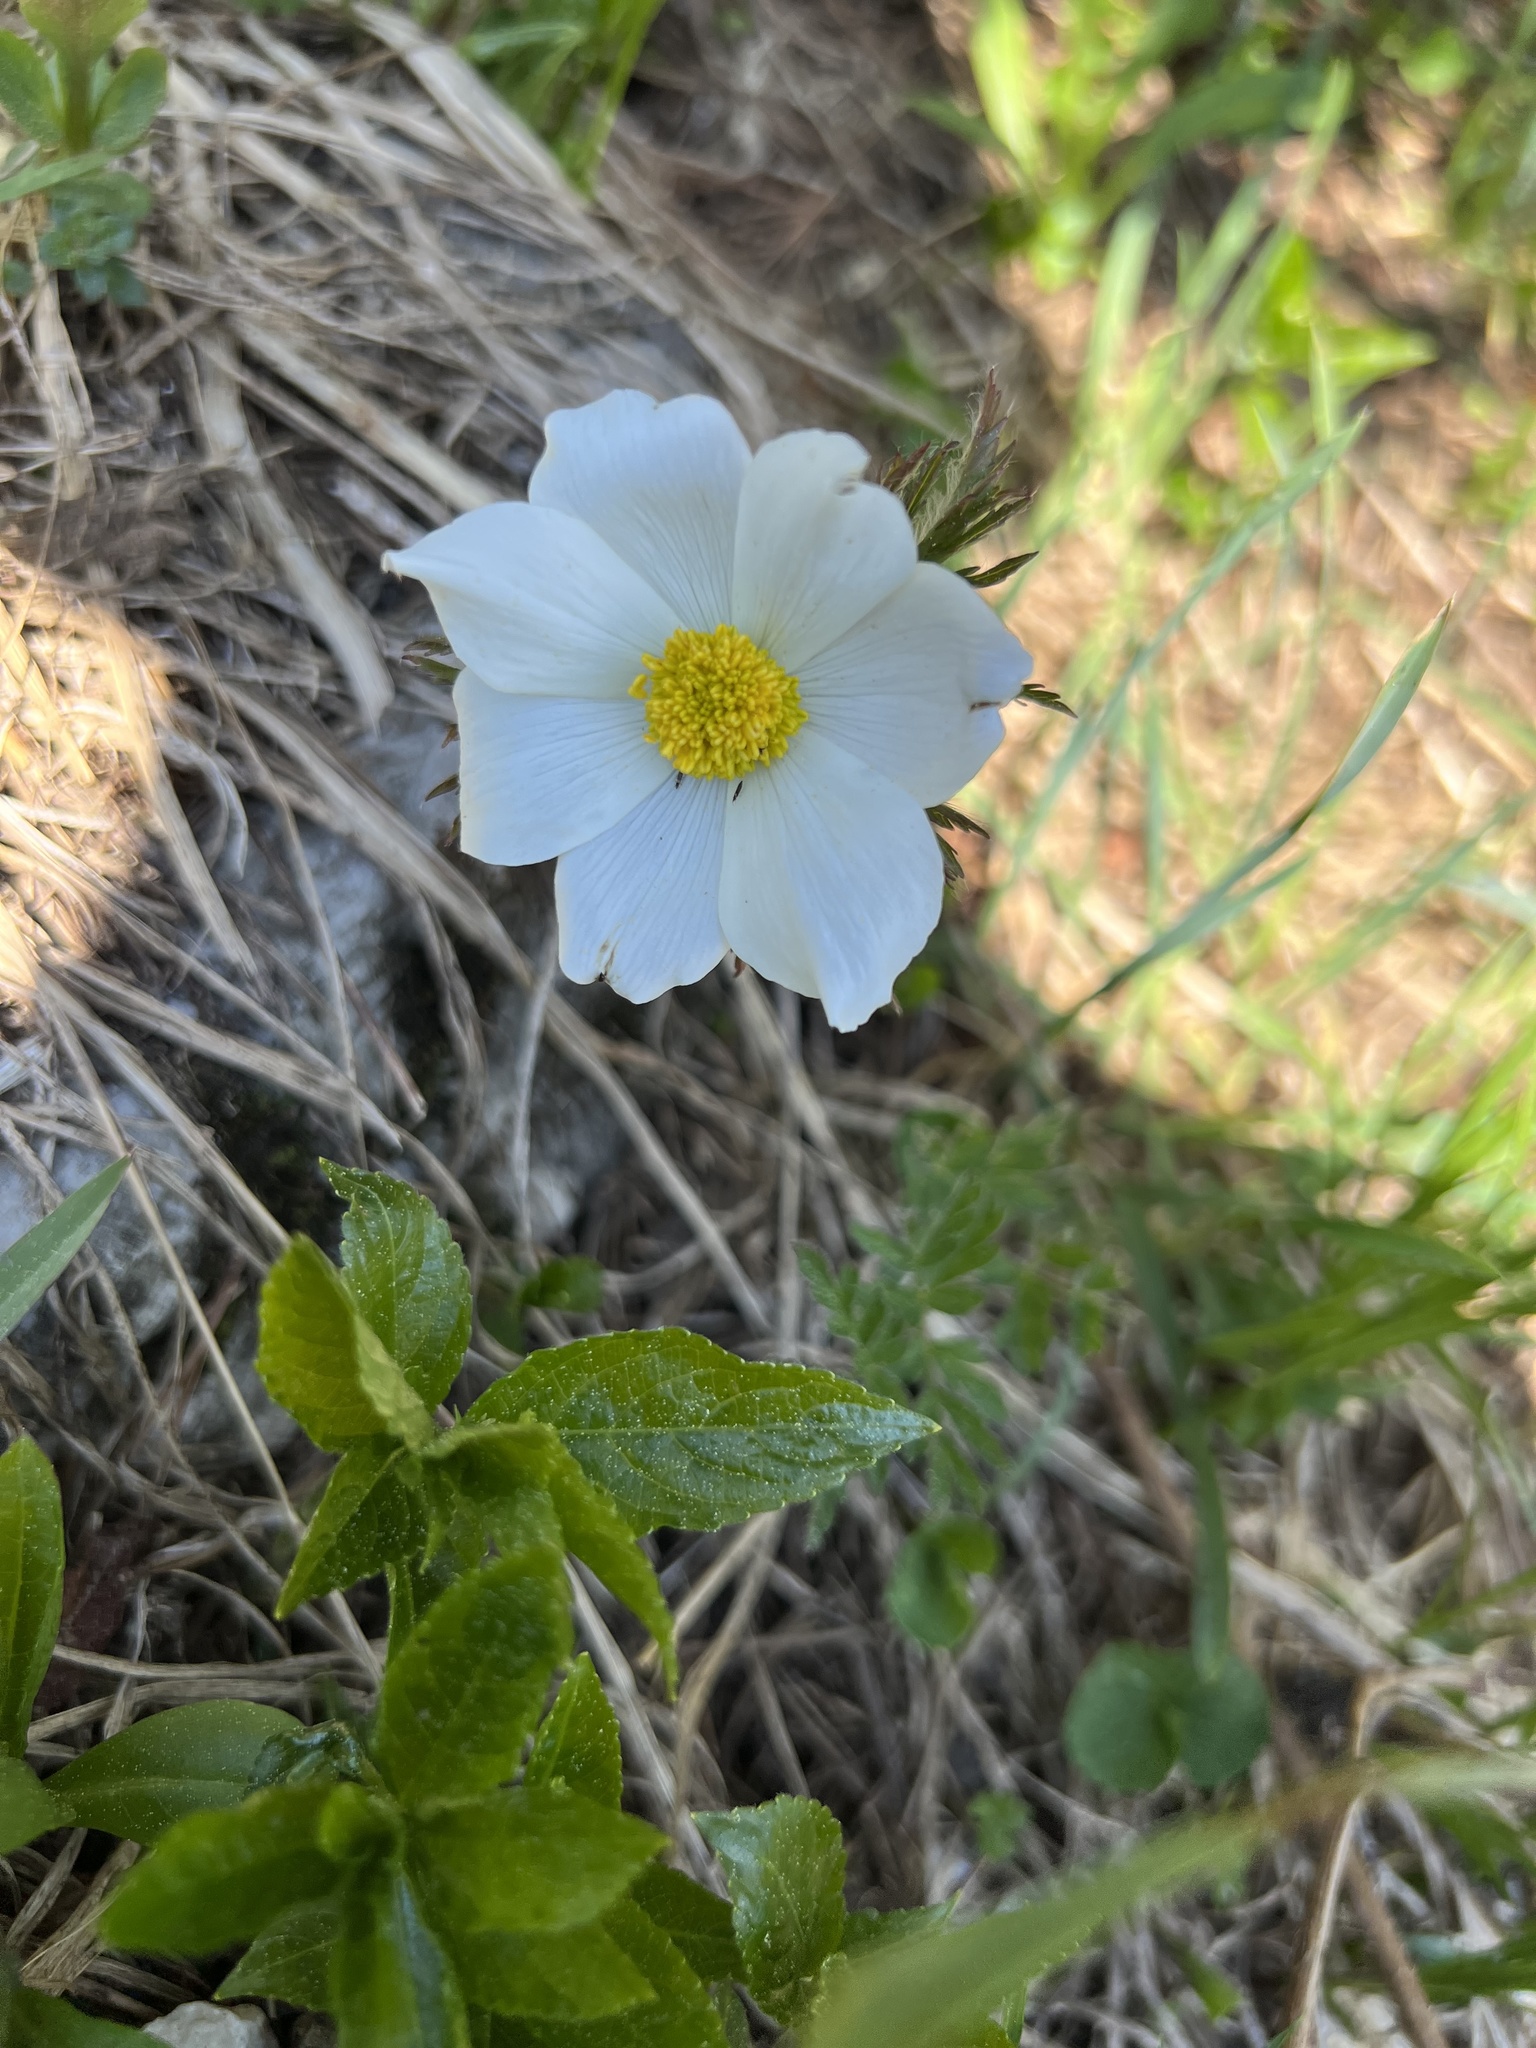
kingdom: Plantae
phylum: Tracheophyta
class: Magnoliopsida
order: Ranunculales
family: Ranunculaceae
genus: Pulsatilla
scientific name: Pulsatilla alpina
